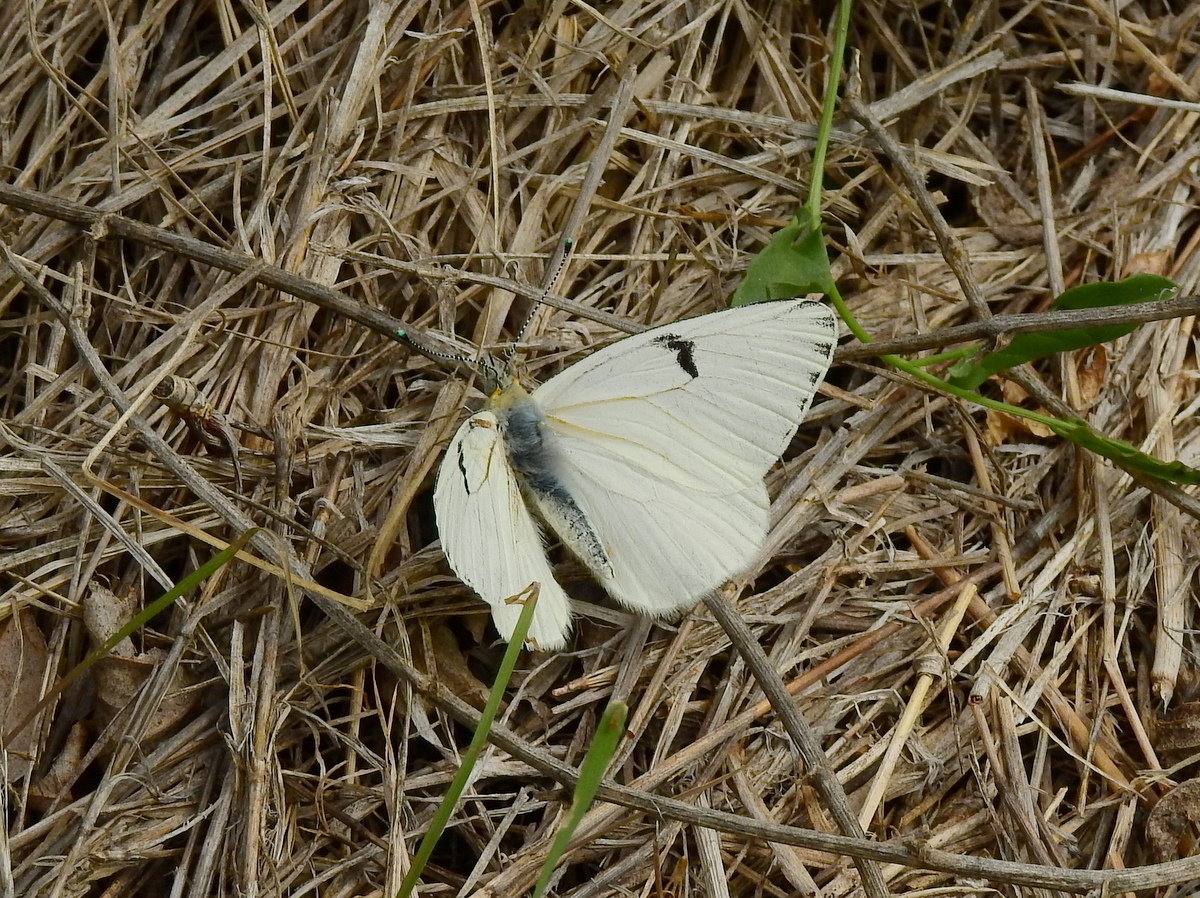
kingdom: Animalia
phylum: Arthropoda
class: Insecta
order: Lepidoptera
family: Pieridae
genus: Tatochila
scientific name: Tatochila mercedis
